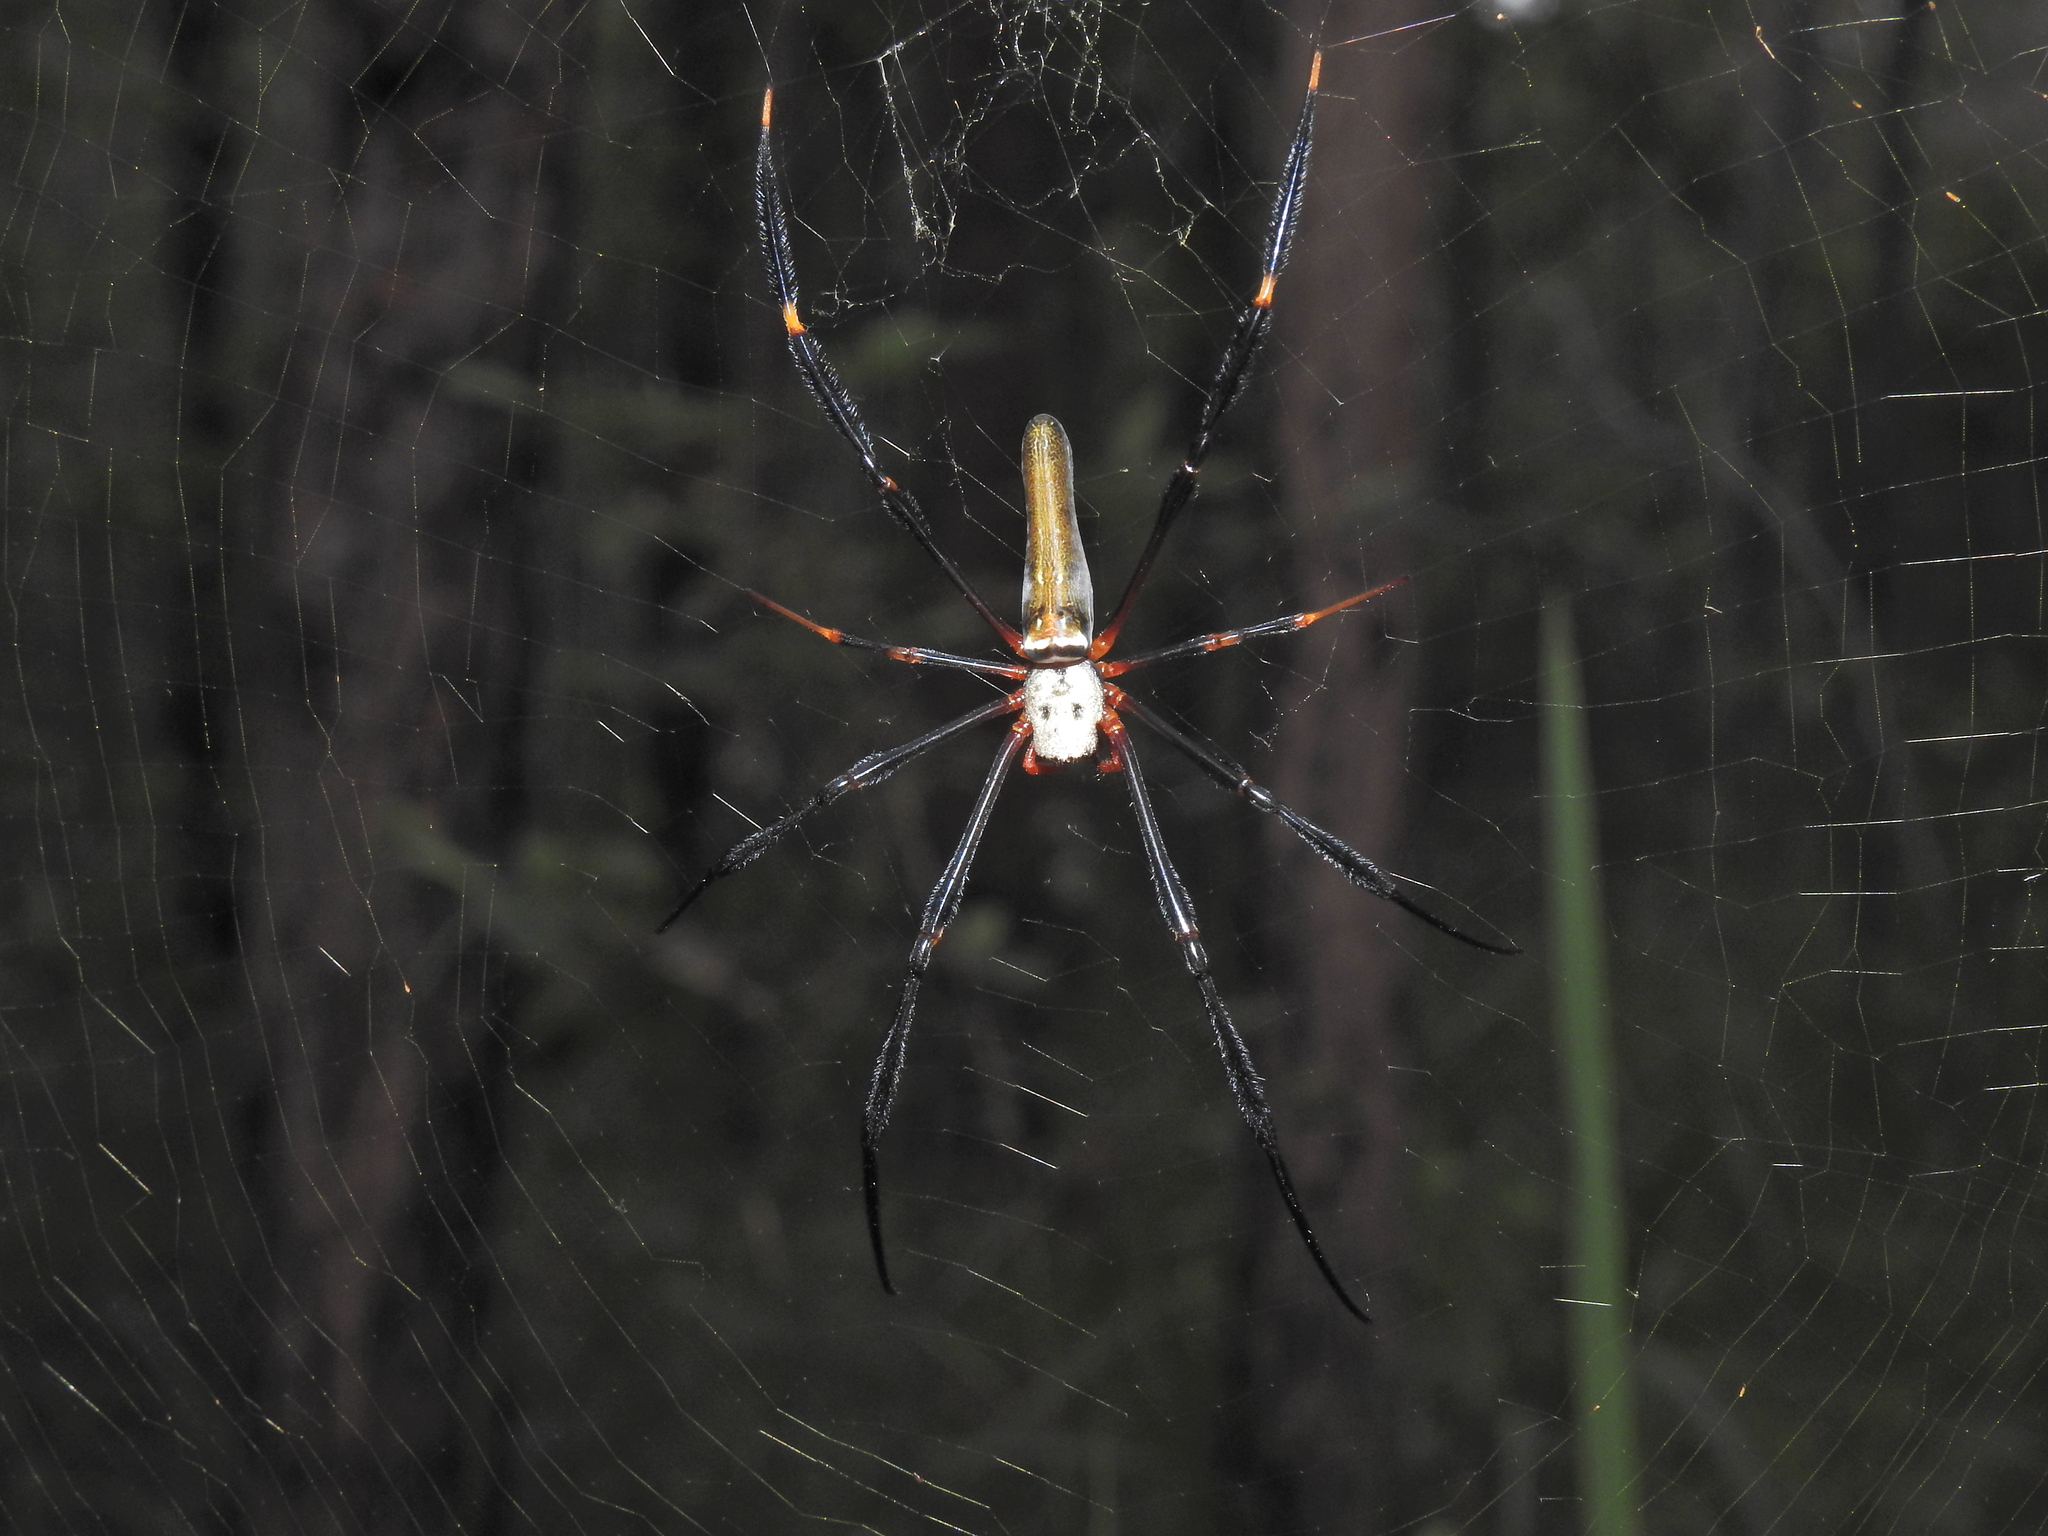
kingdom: Animalia
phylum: Arthropoda
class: Arachnida
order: Araneae
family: Araneidae
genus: Nephila
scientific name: Nephila pilipes
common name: Giant golden orb weaver
